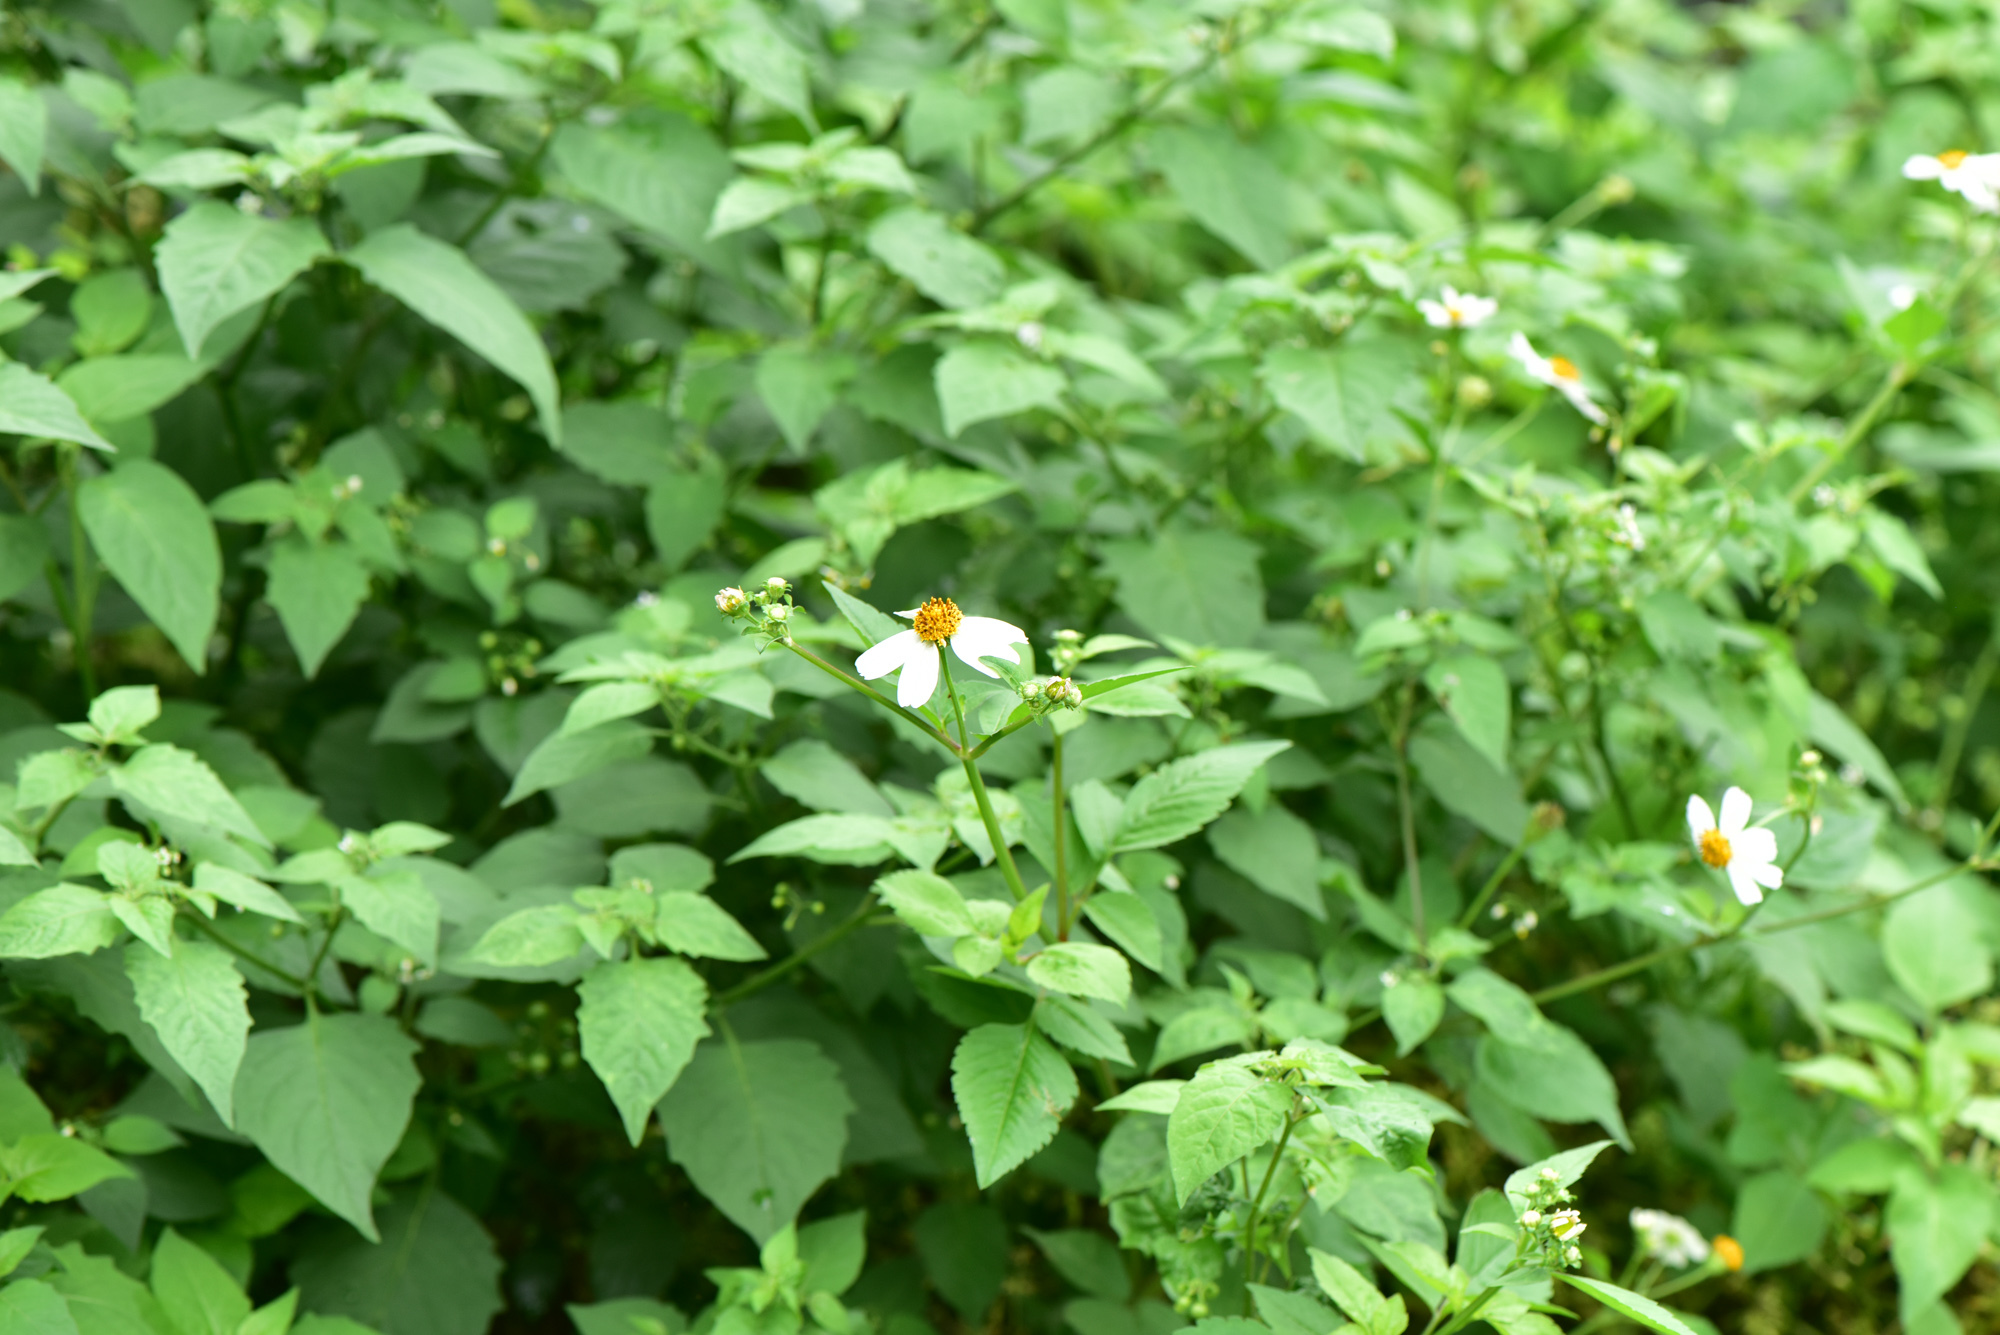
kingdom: Plantae
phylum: Tracheophyta
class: Magnoliopsida
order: Asterales
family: Asteraceae
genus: Bidens
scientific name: Bidens alba
